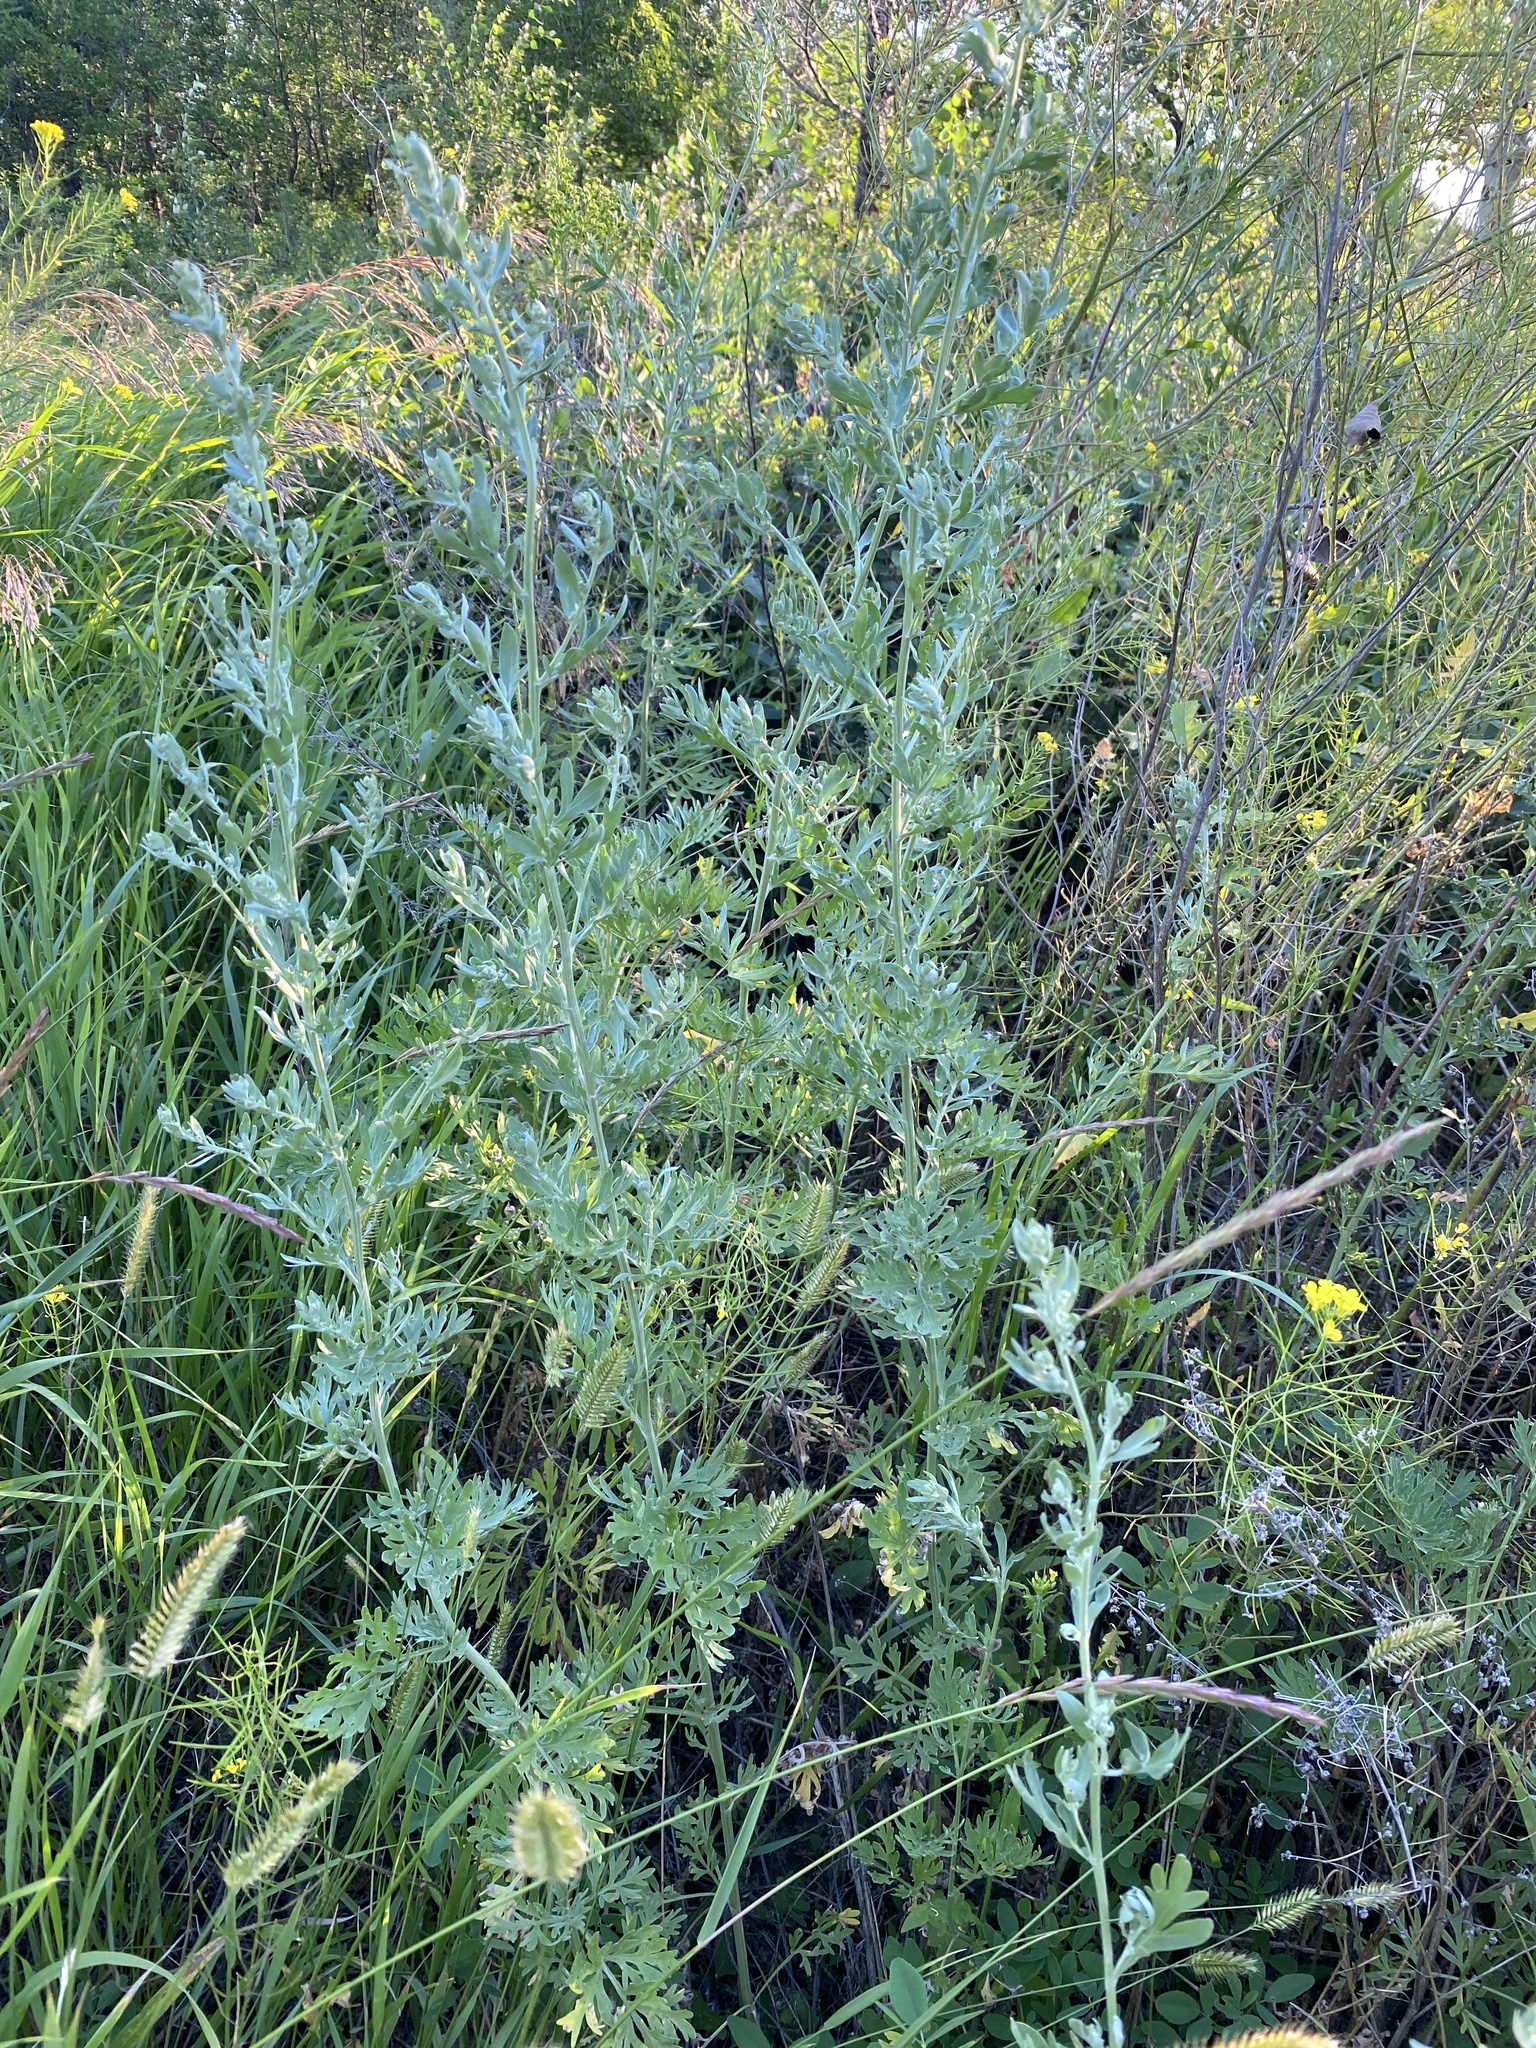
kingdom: Plantae
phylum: Tracheophyta
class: Magnoliopsida
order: Asterales
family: Asteraceae
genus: Artemisia
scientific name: Artemisia absinthium
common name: Wormwood
